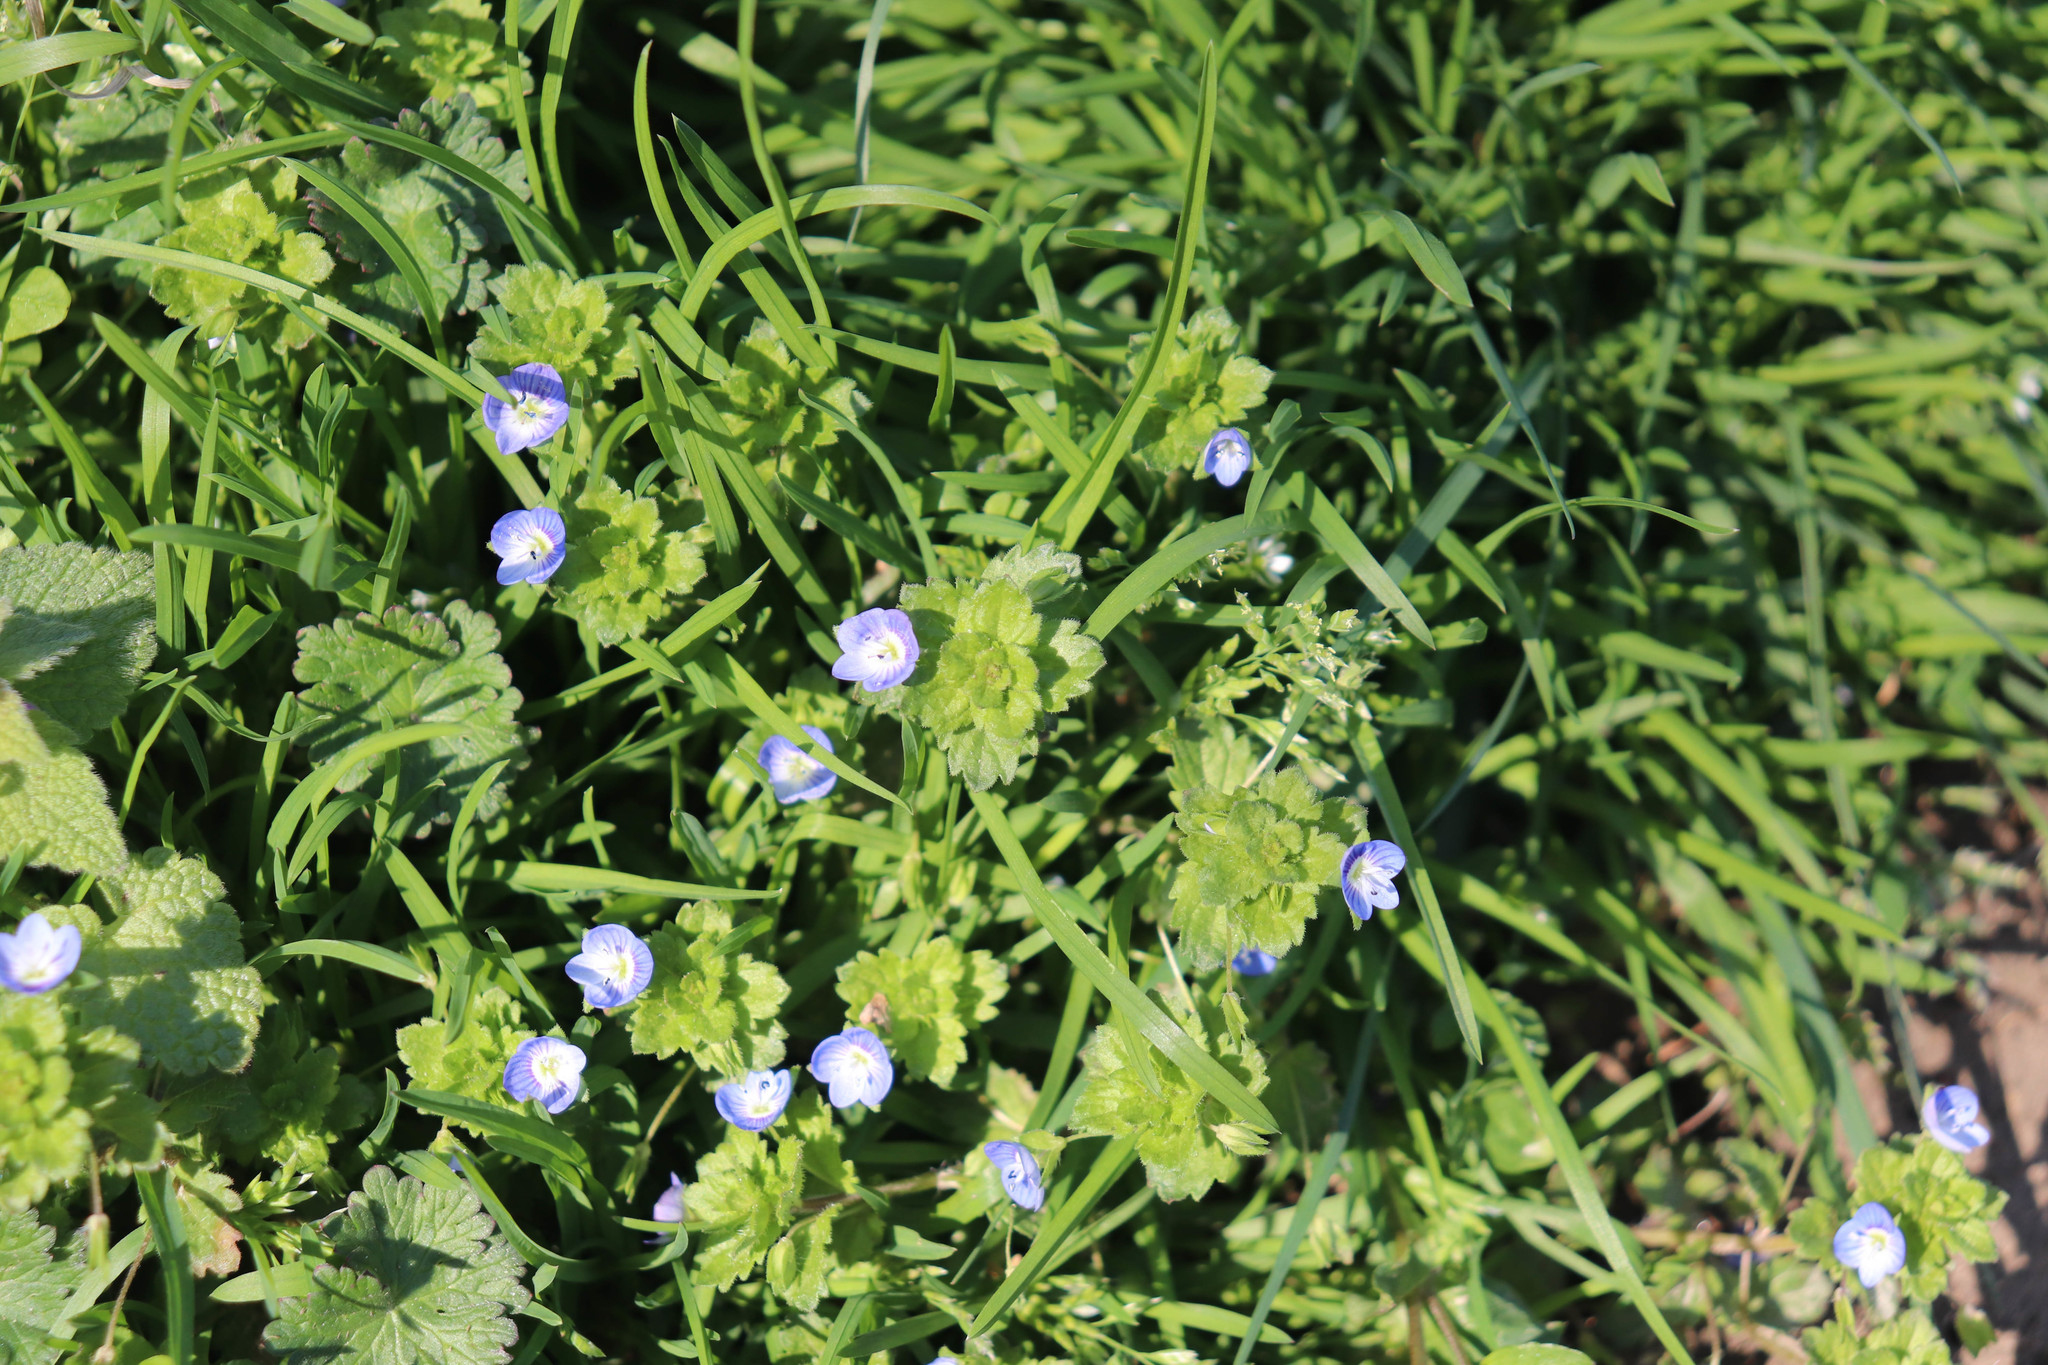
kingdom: Plantae
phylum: Tracheophyta
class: Magnoliopsida
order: Lamiales
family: Plantaginaceae
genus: Veronica
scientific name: Veronica persica
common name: Common field-speedwell
